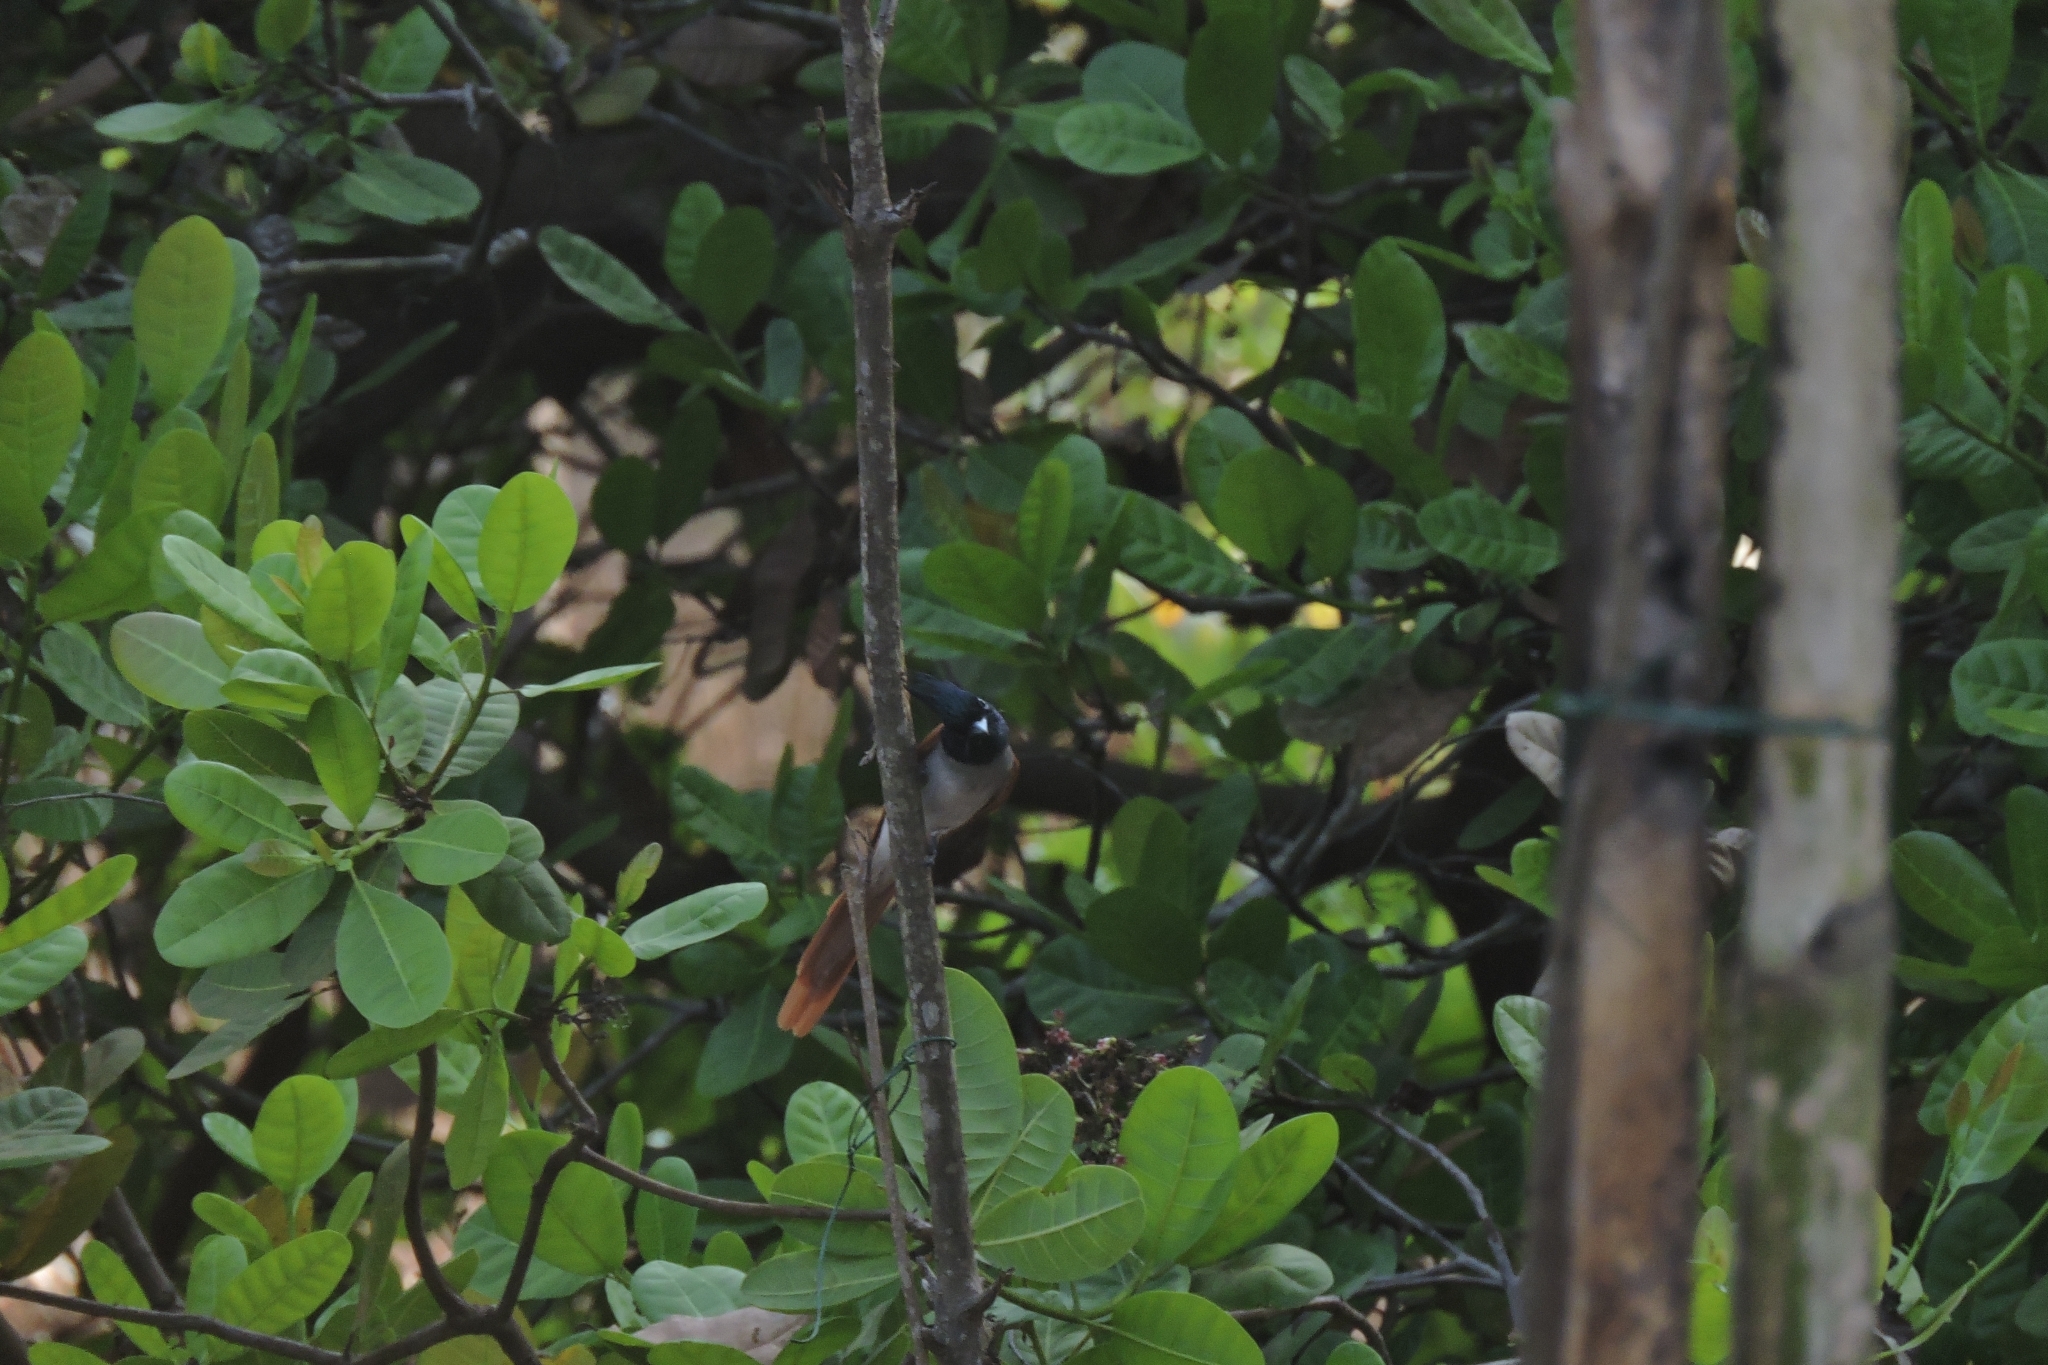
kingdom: Animalia
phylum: Chordata
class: Aves
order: Passeriformes
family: Monarchidae
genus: Terpsiphone
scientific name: Terpsiphone paradisi
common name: Indian paradise flycatcher
